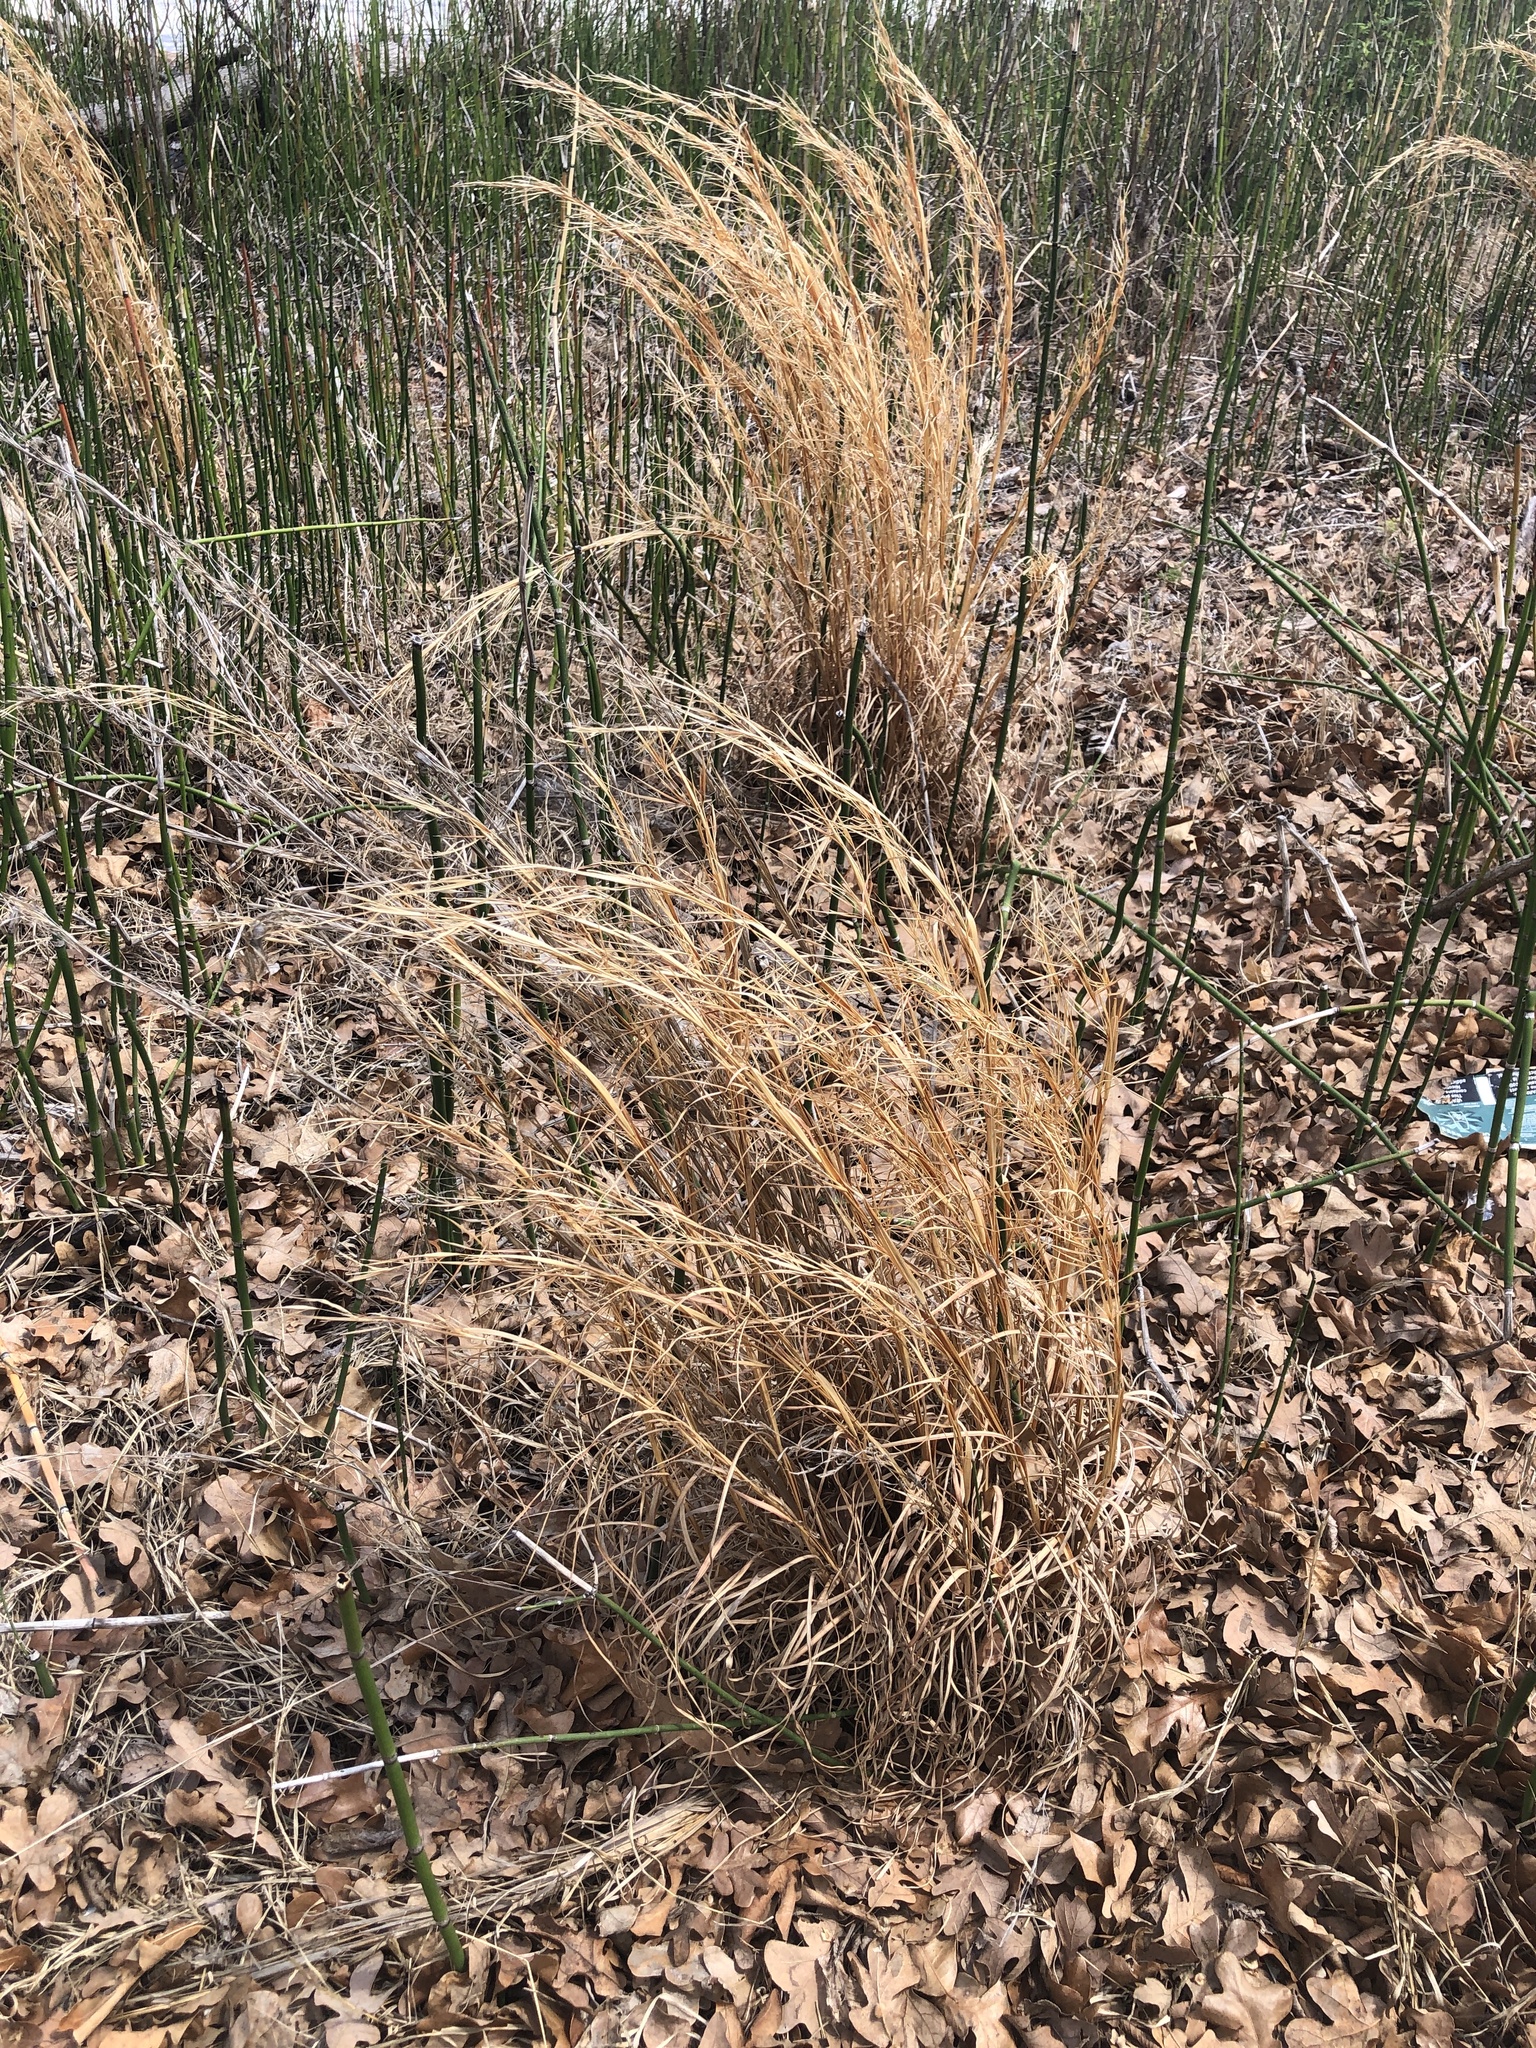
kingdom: Plantae
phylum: Tracheophyta
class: Liliopsida
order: Poales
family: Poaceae
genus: Andropogon
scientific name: Andropogon virginicus
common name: Broomsedge bluestem
